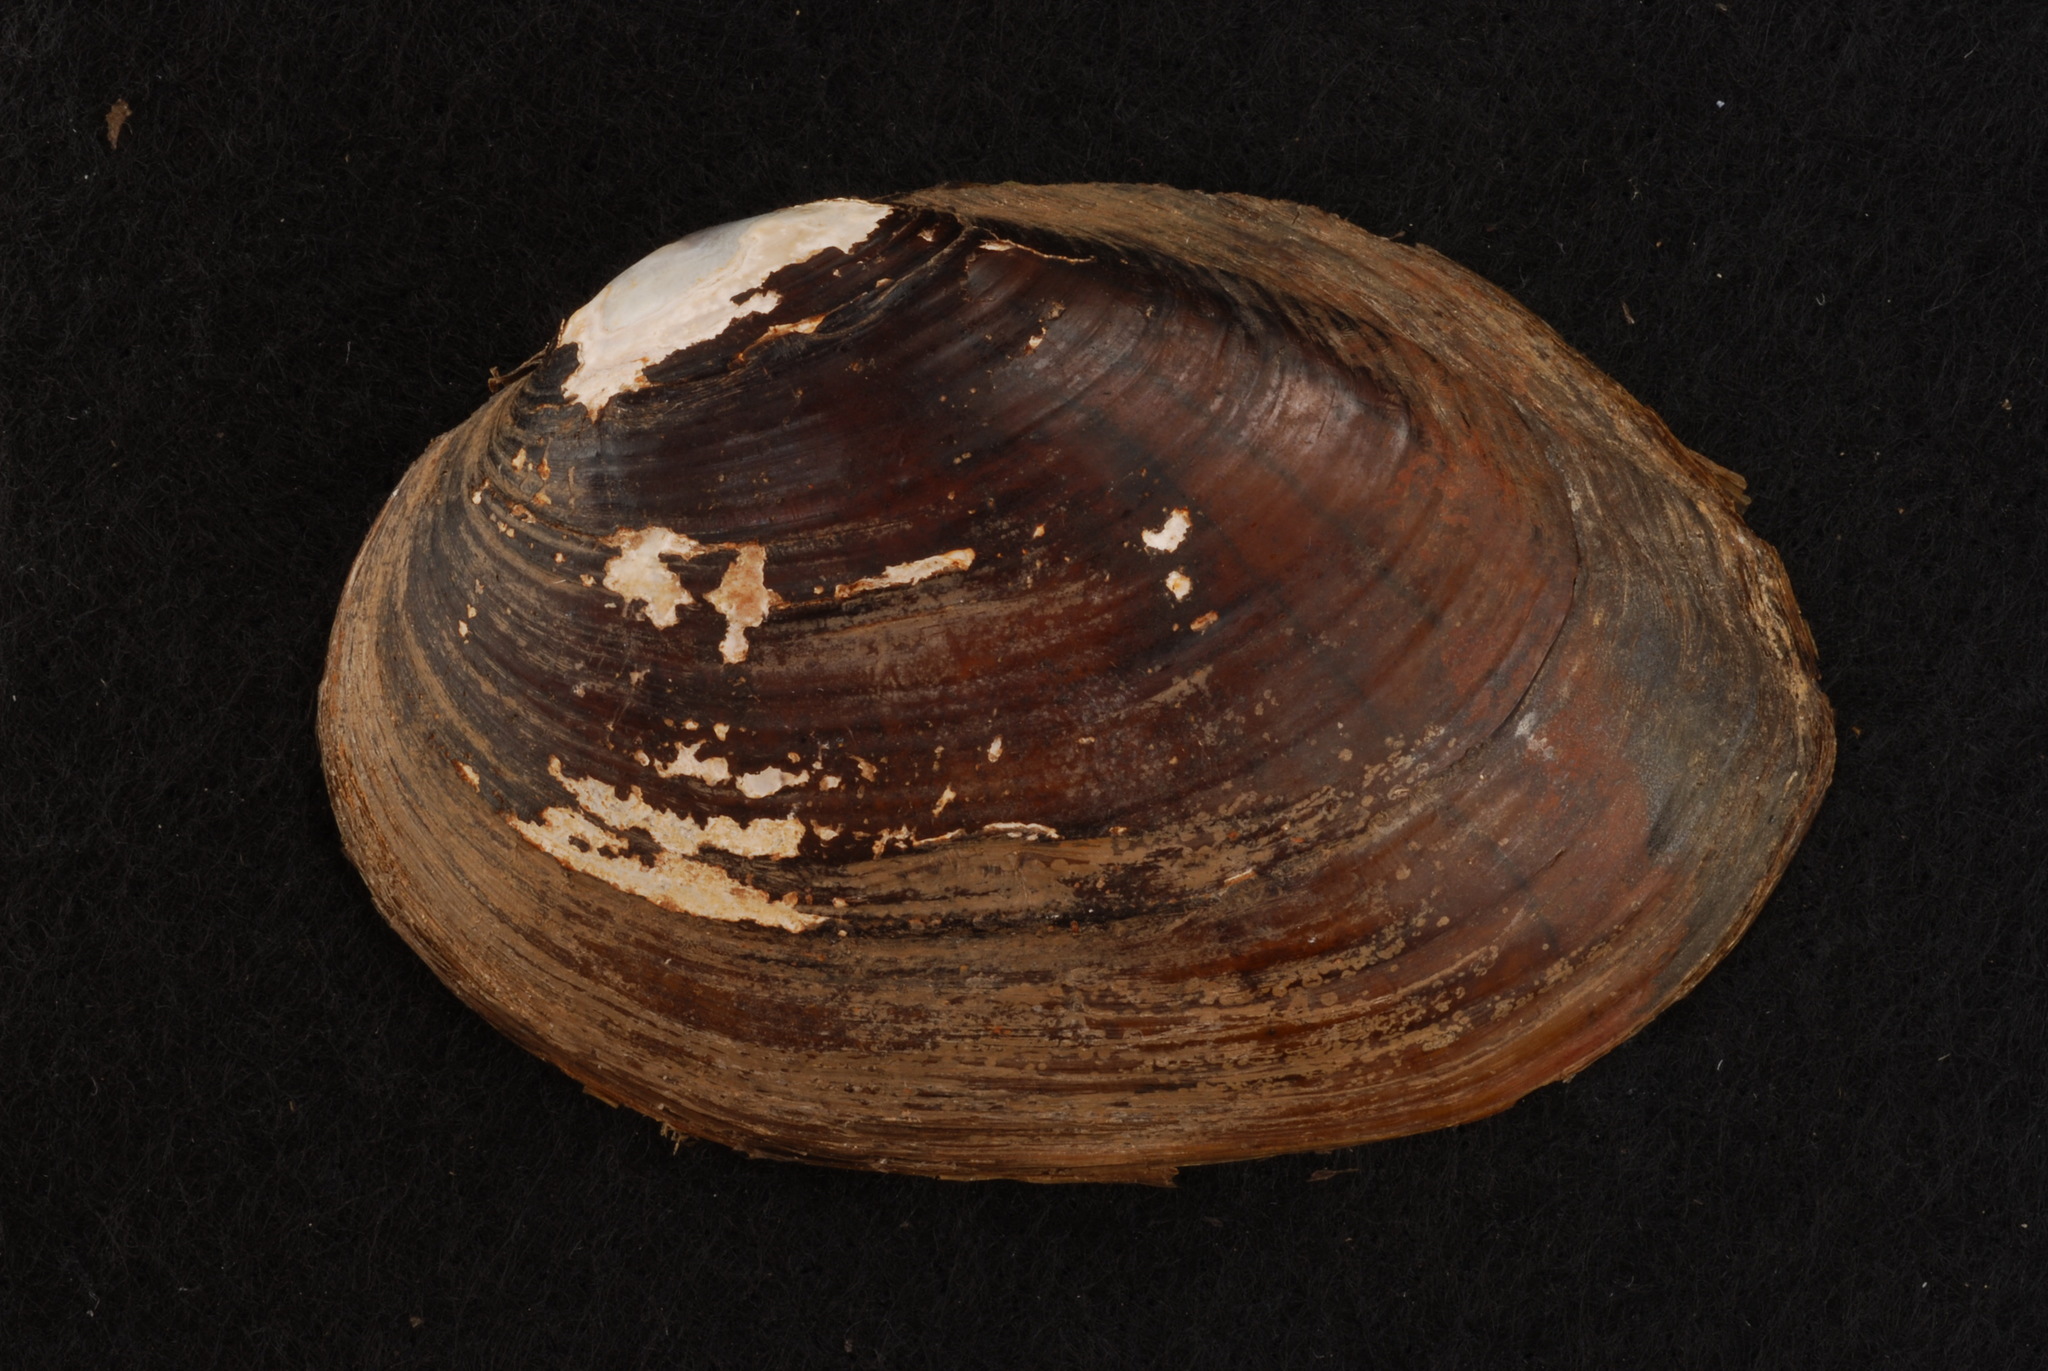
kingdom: Animalia
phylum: Mollusca
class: Bivalvia
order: Unionida
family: Unionidae
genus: Lampsilis
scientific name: Lampsilis hydiana
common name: Louisiana fatmucket
